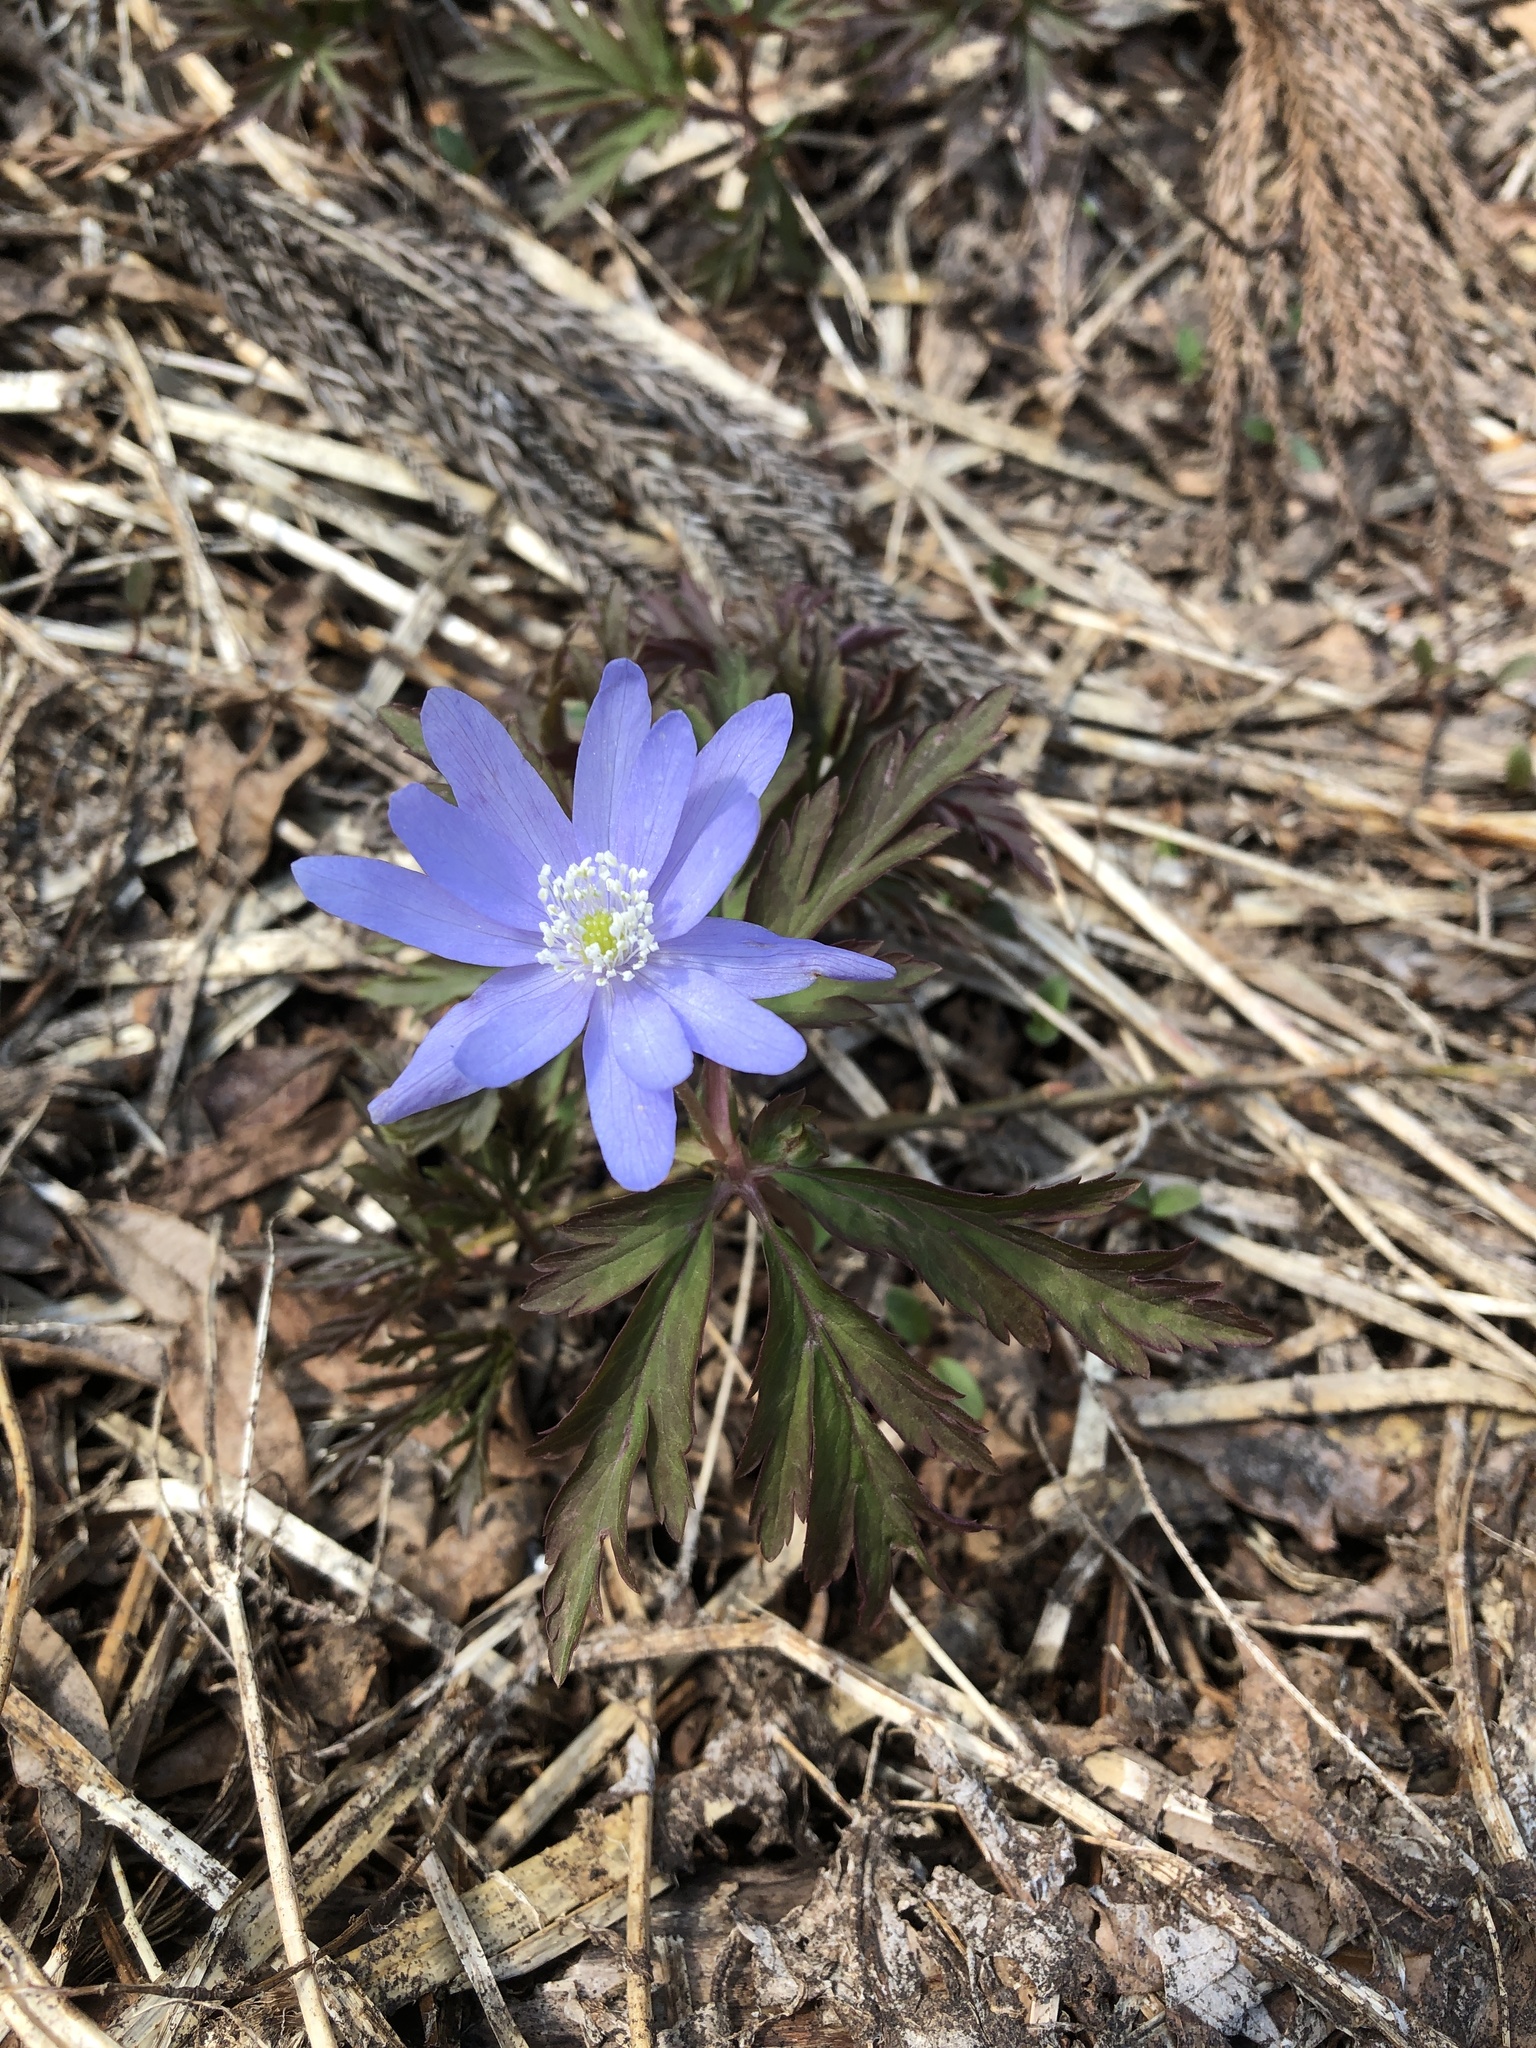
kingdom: Plantae
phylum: Tracheophyta
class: Magnoliopsida
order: Ranunculales
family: Ranunculaceae
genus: Anemone
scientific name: Anemone pseudoaltaica
